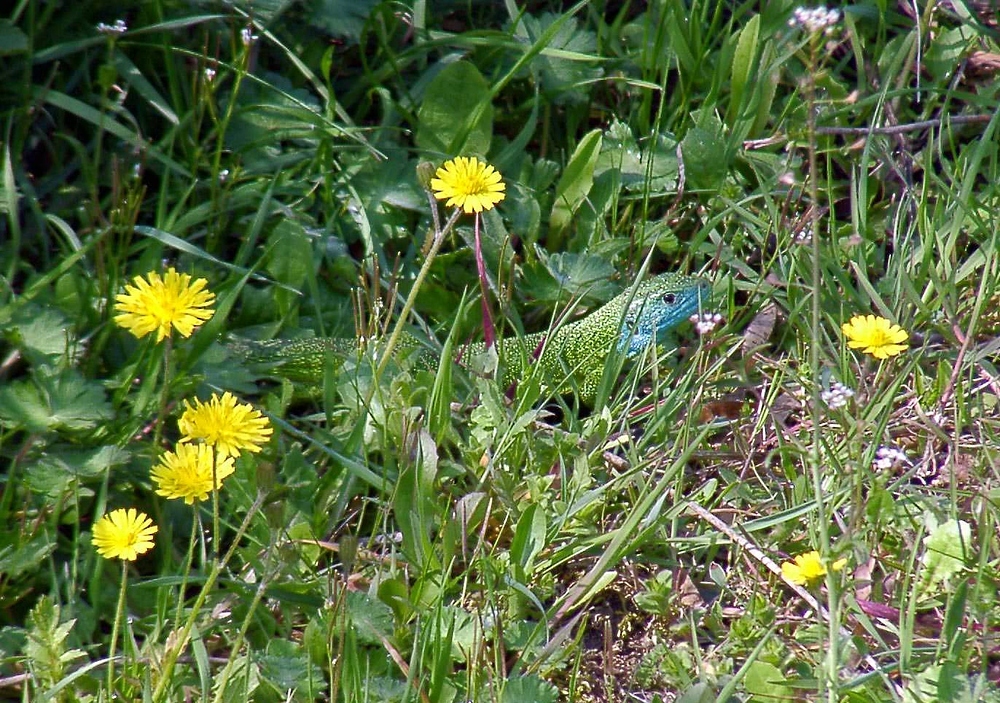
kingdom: Animalia
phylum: Chordata
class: Squamata
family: Lacertidae
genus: Lacerta
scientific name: Lacerta bilineata
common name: Western green lizard
